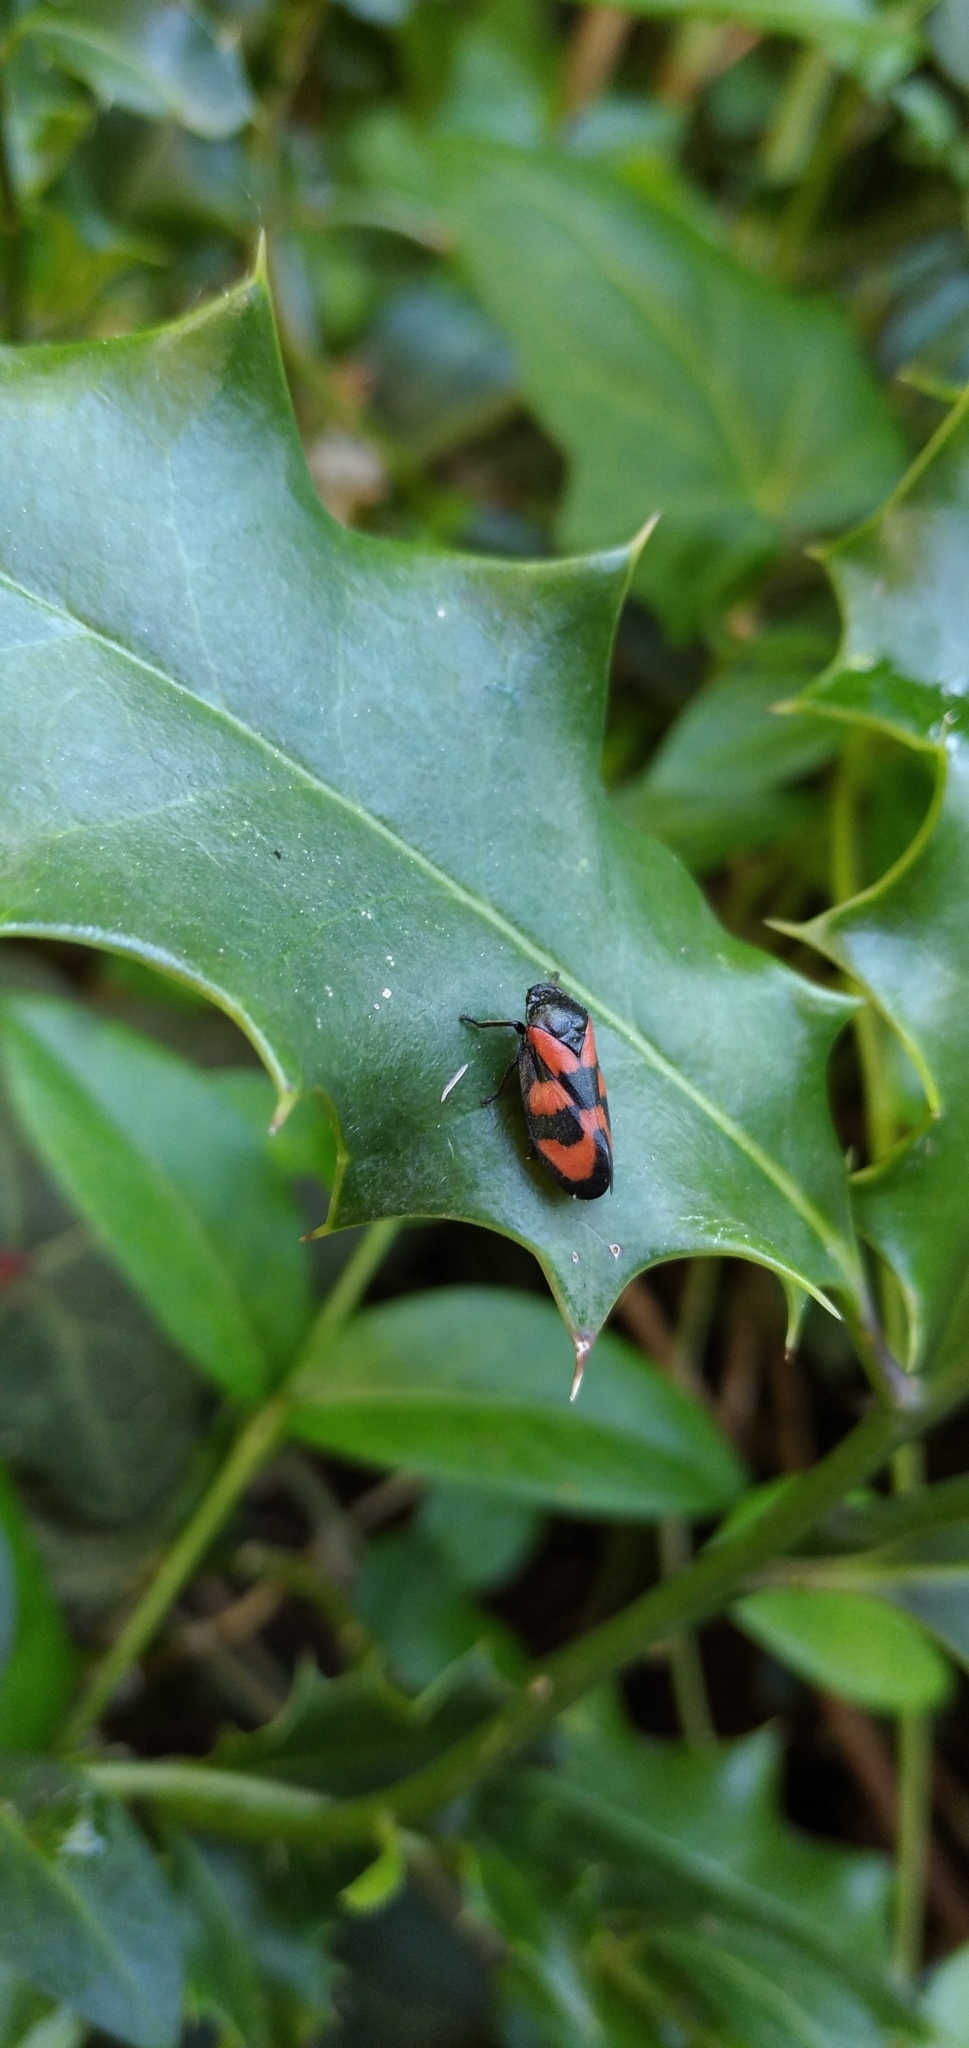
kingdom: Animalia
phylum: Arthropoda
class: Insecta
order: Hemiptera
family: Cercopidae
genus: Cercopis
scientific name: Cercopis vulnerata
